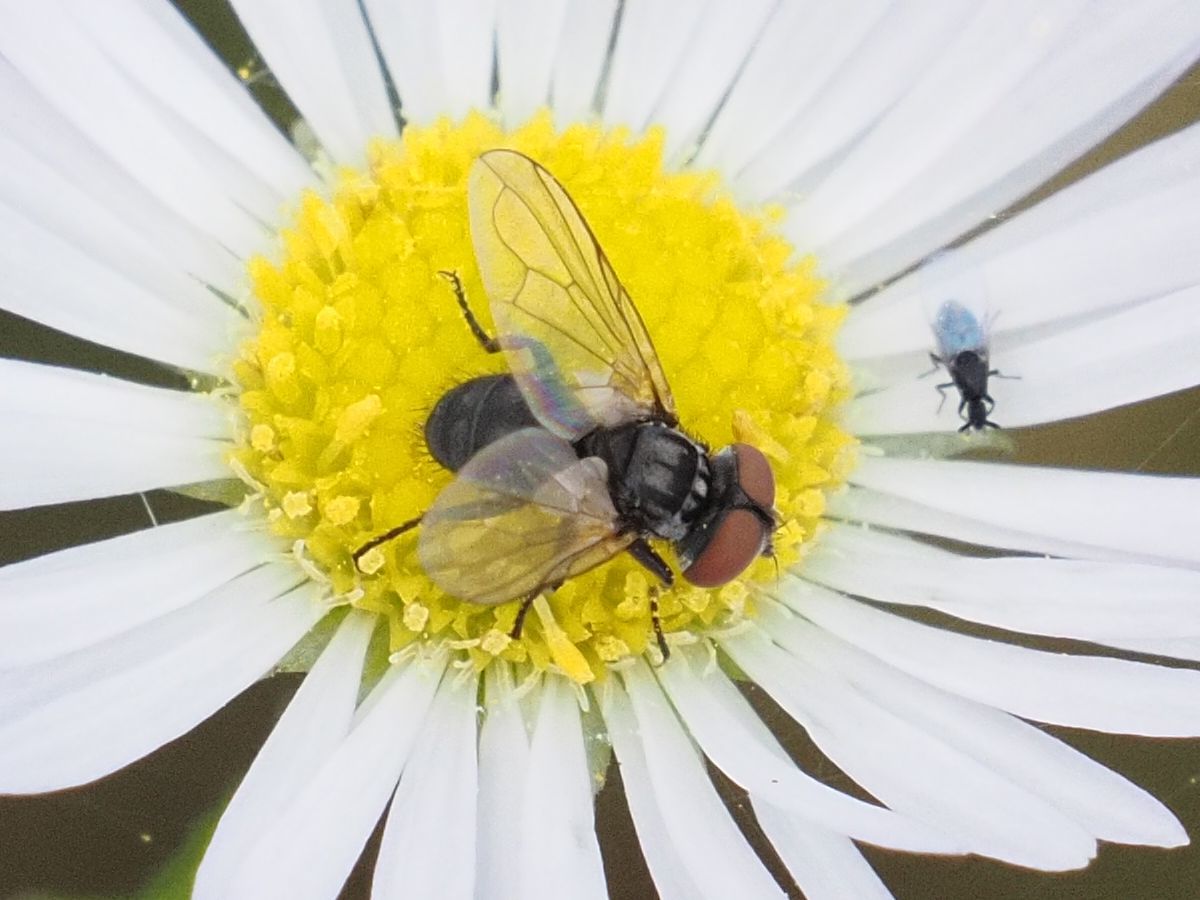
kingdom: Animalia
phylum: Arthropoda
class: Insecta
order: Diptera
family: Tachinidae
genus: Phasia
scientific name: Phasia obesa
